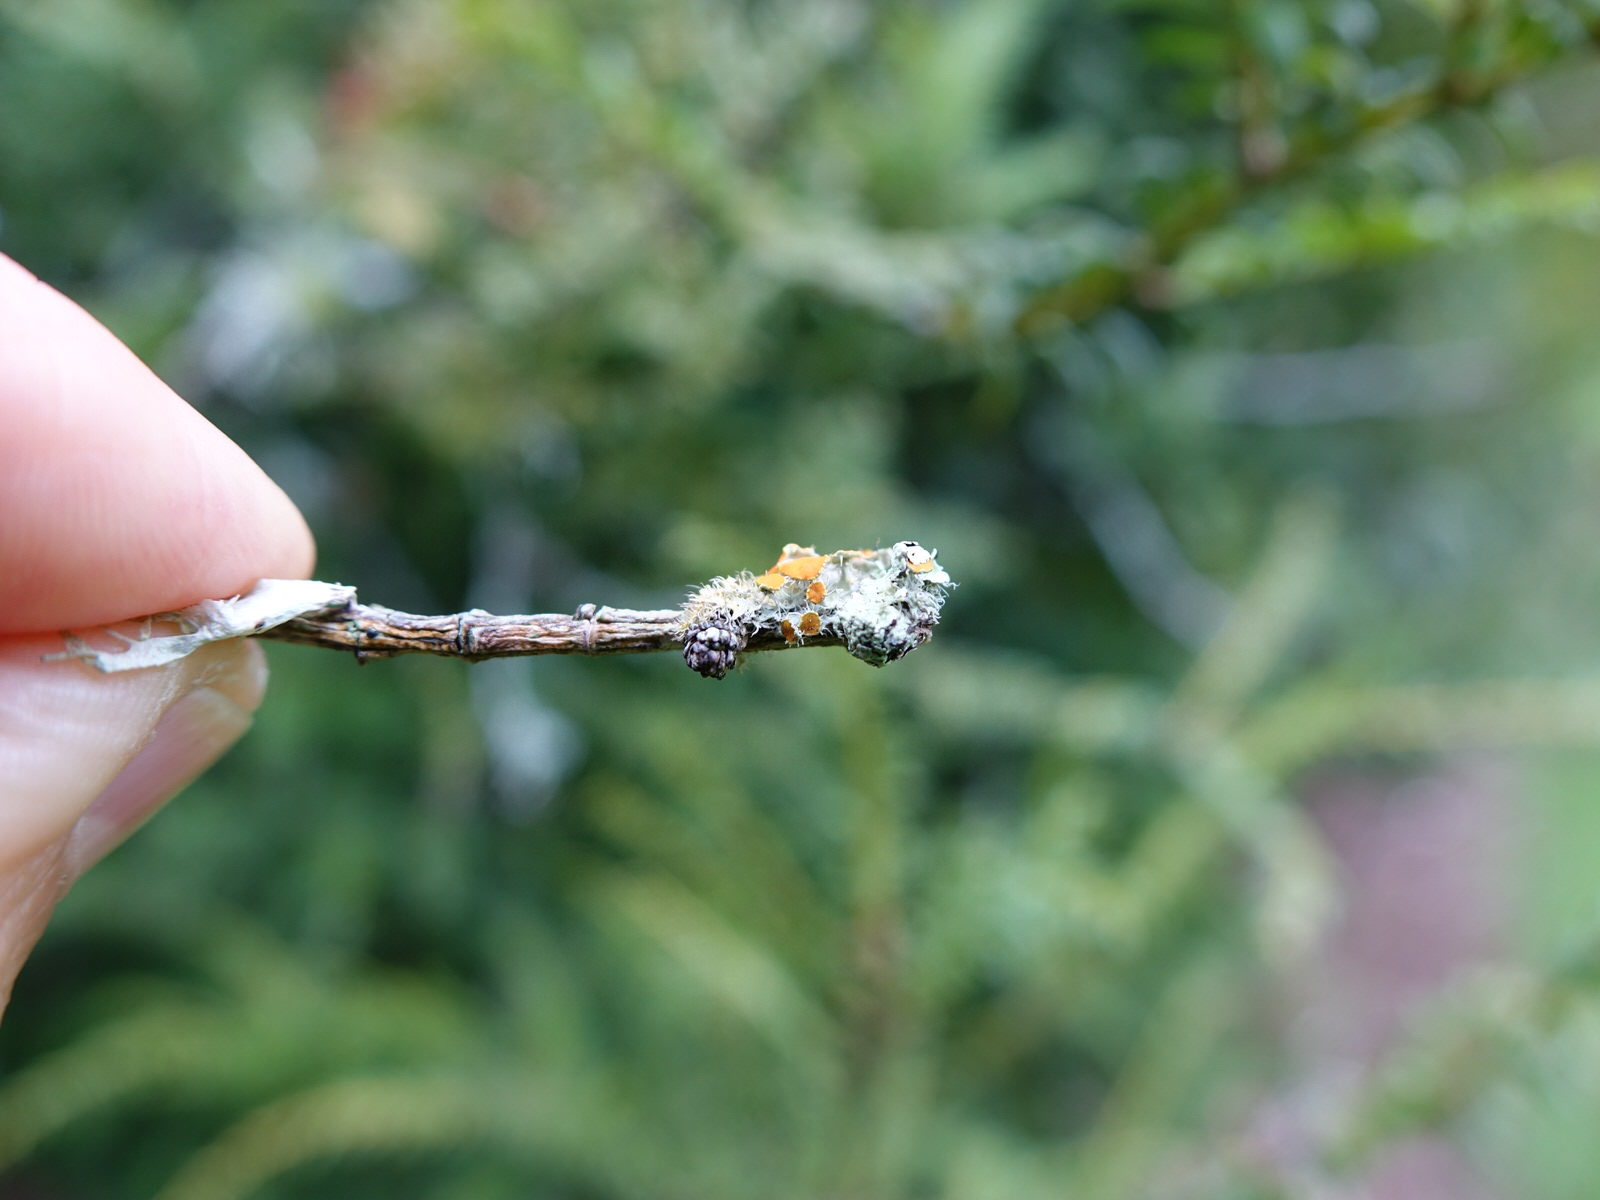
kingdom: Fungi
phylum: Ascomycota
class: Lecanoromycetes
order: Teloschistales
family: Teloschistaceae
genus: Niorma
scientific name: Niorma chrysophthalma
